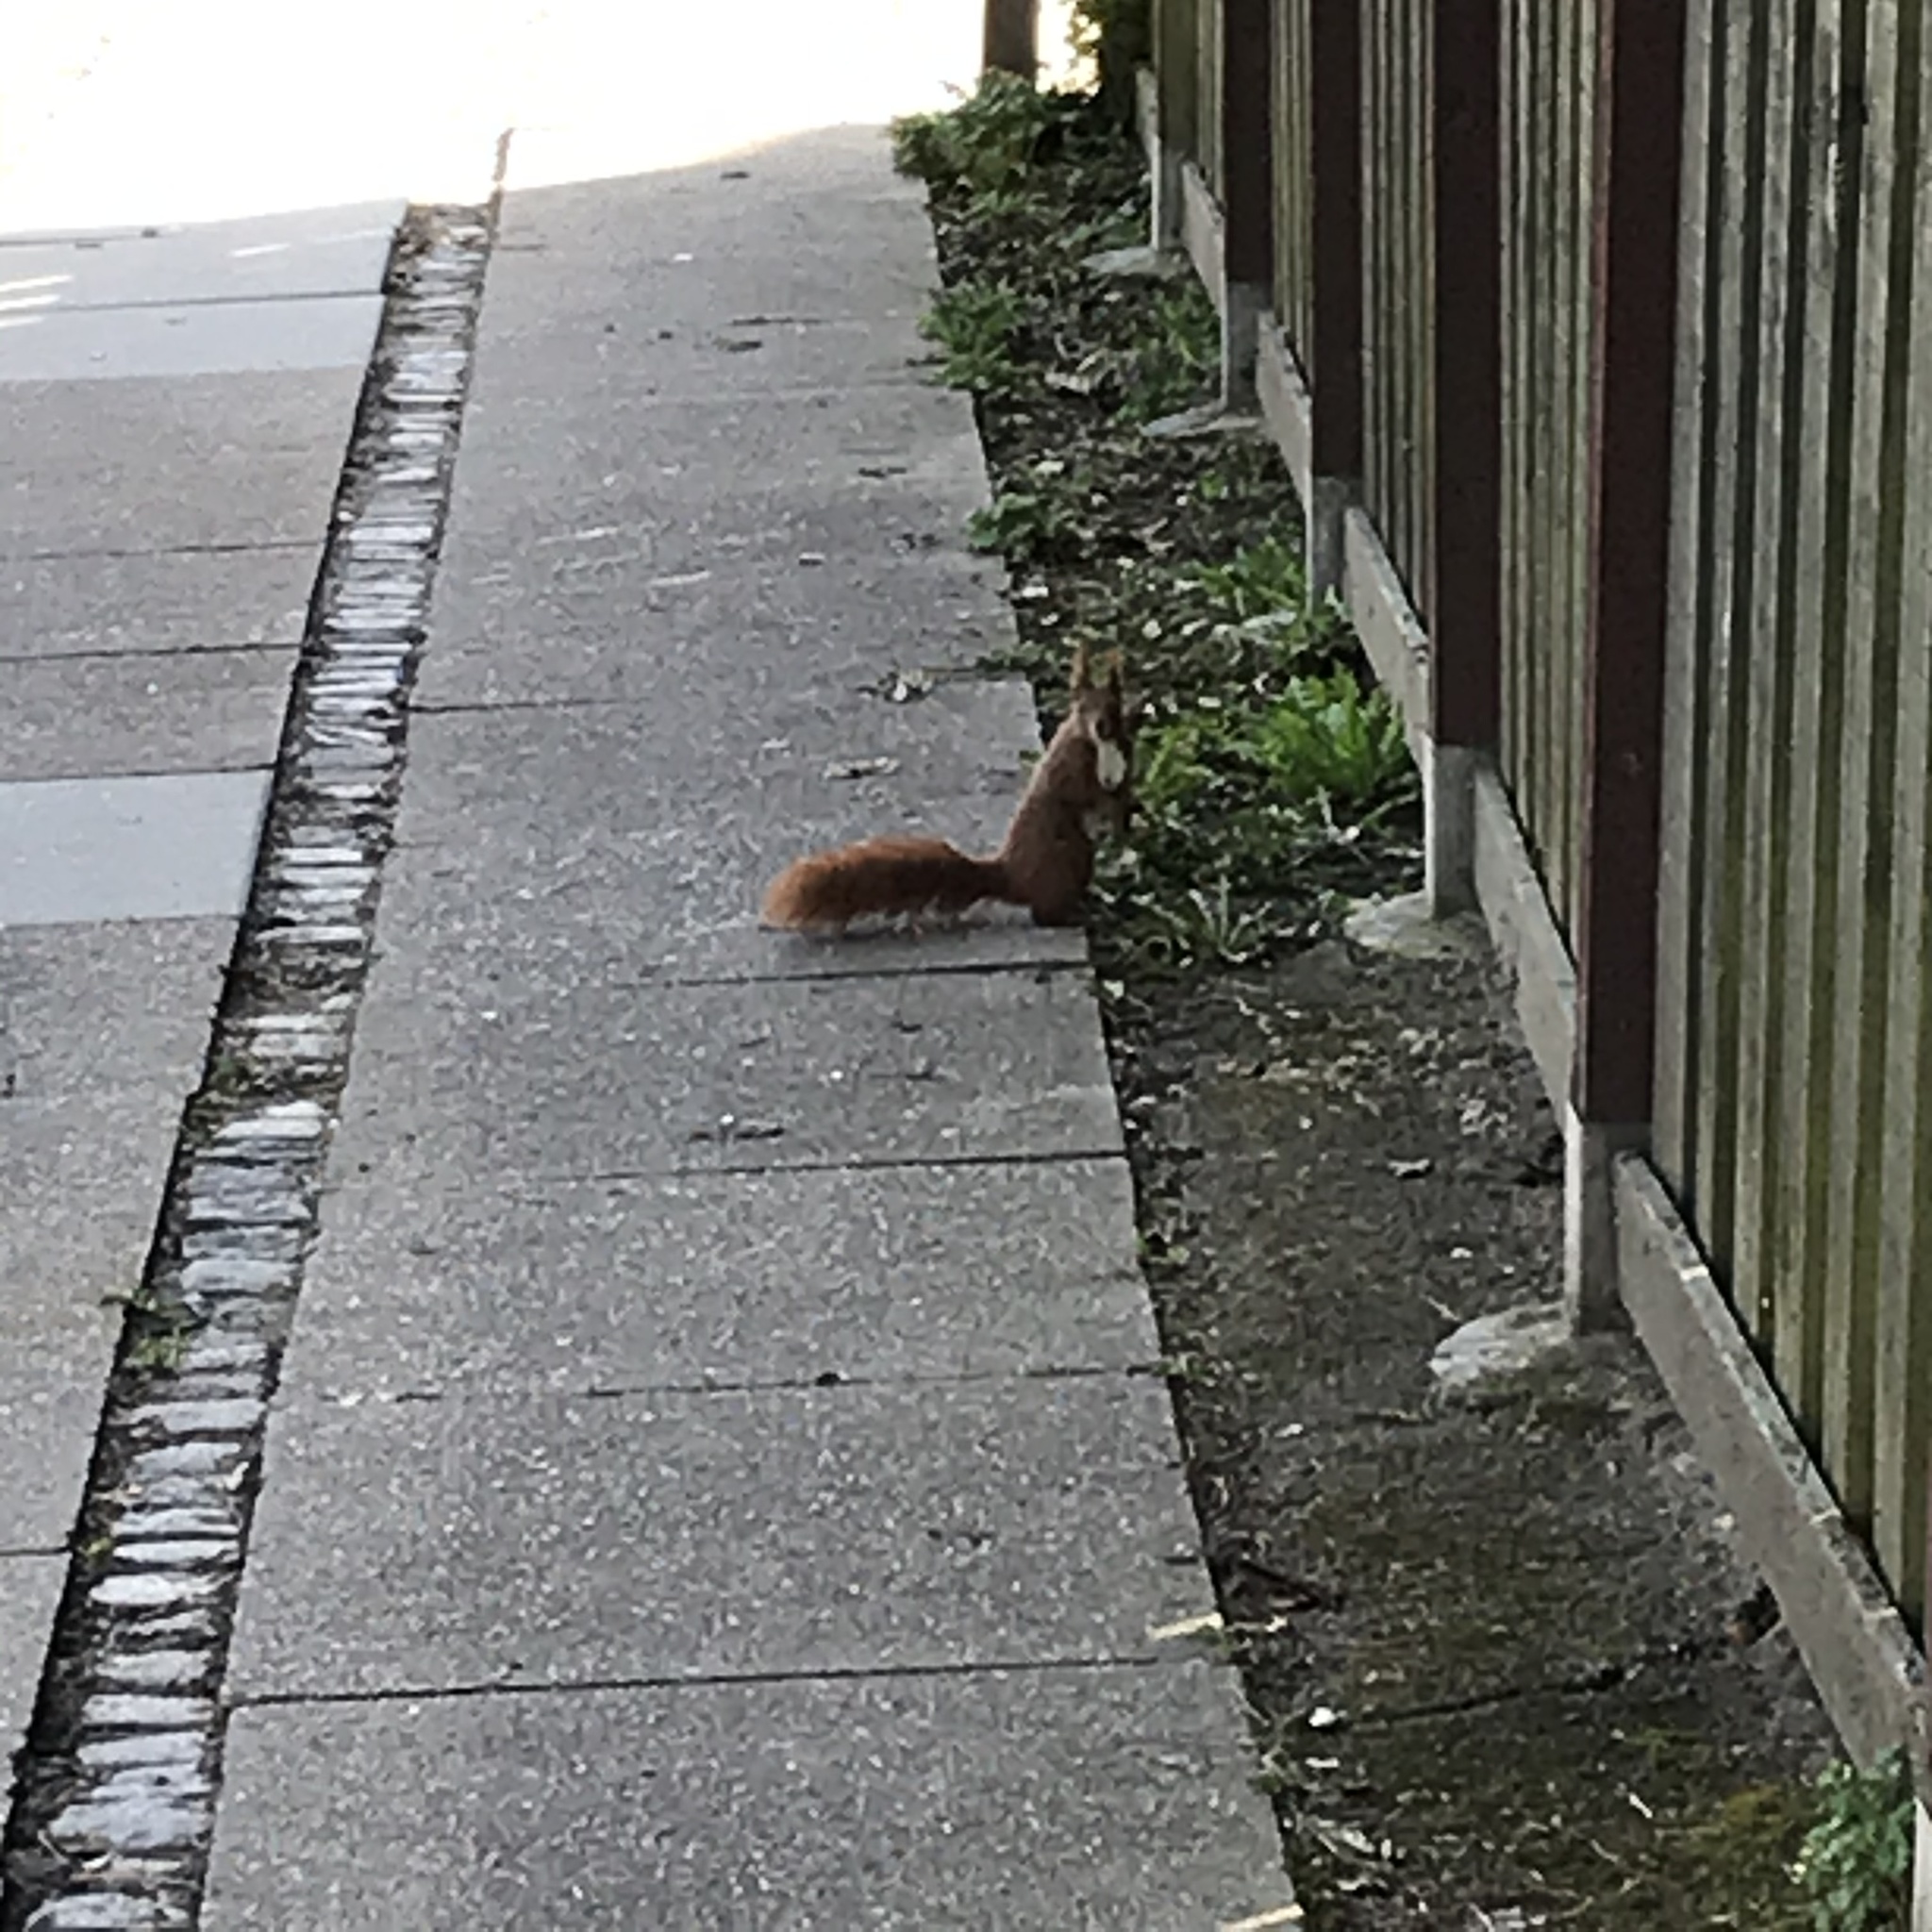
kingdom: Animalia
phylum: Chordata
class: Mammalia
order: Rodentia
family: Sciuridae
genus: Sciurus
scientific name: Sciurus vulgaris
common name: Eurasian red squirrel
